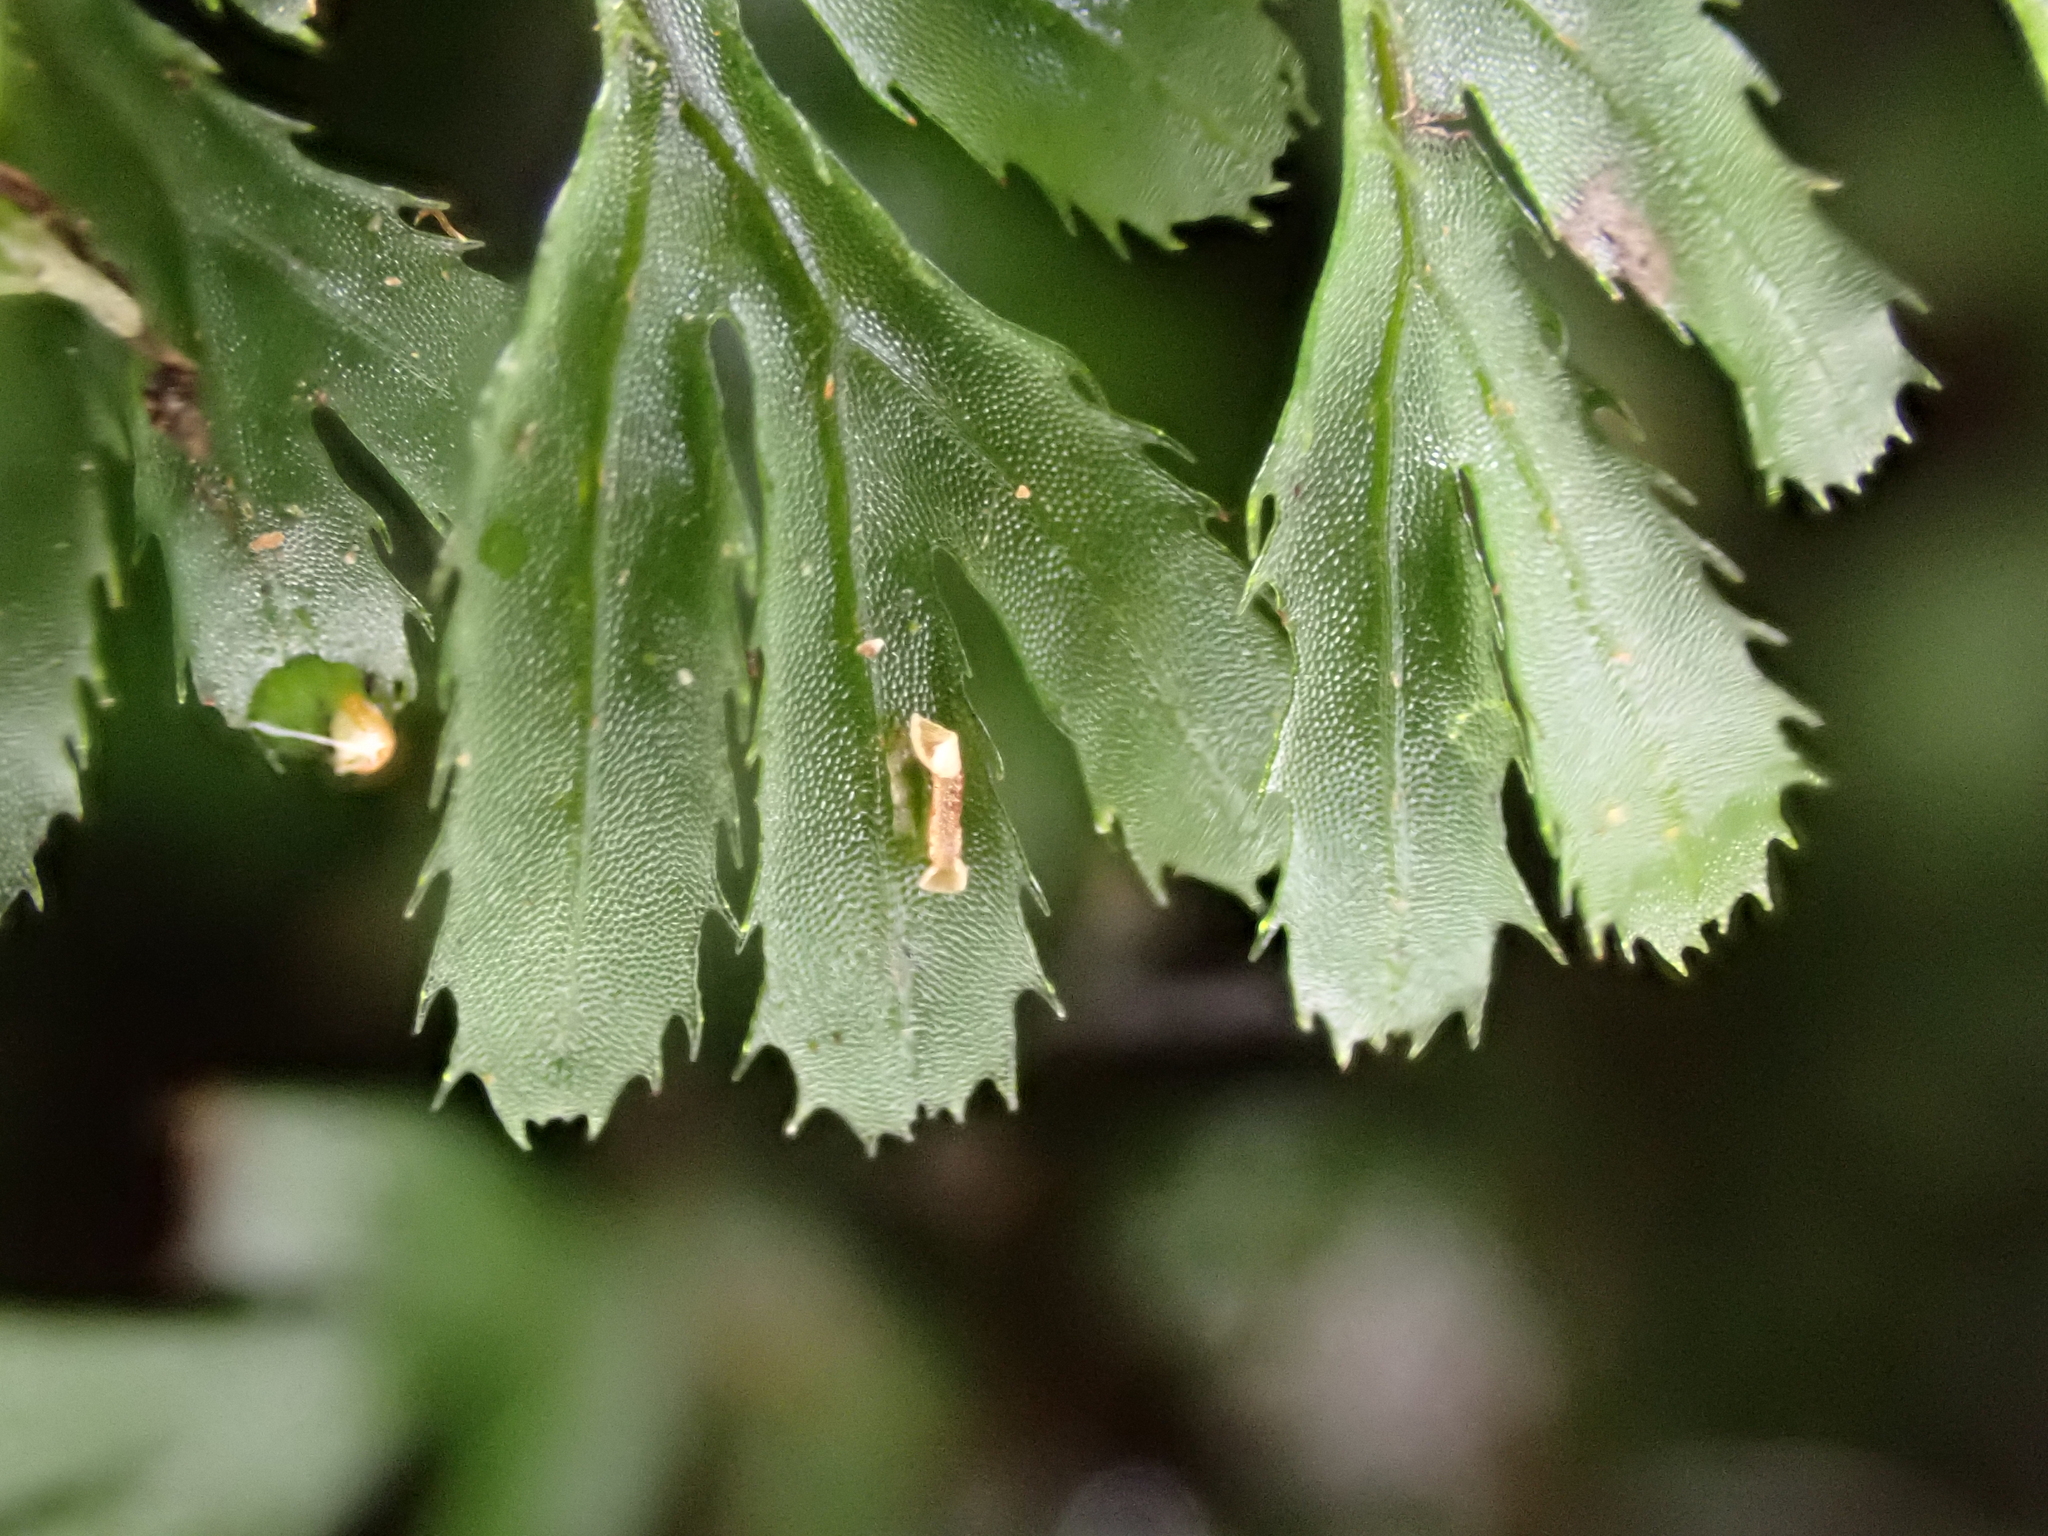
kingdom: Plantae
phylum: Tracheophyta
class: Polypodiopsida
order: Hymenophyllales
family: Hymenophyllaceae
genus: Hymenophyllum
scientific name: Hymenophyllum revolutum
